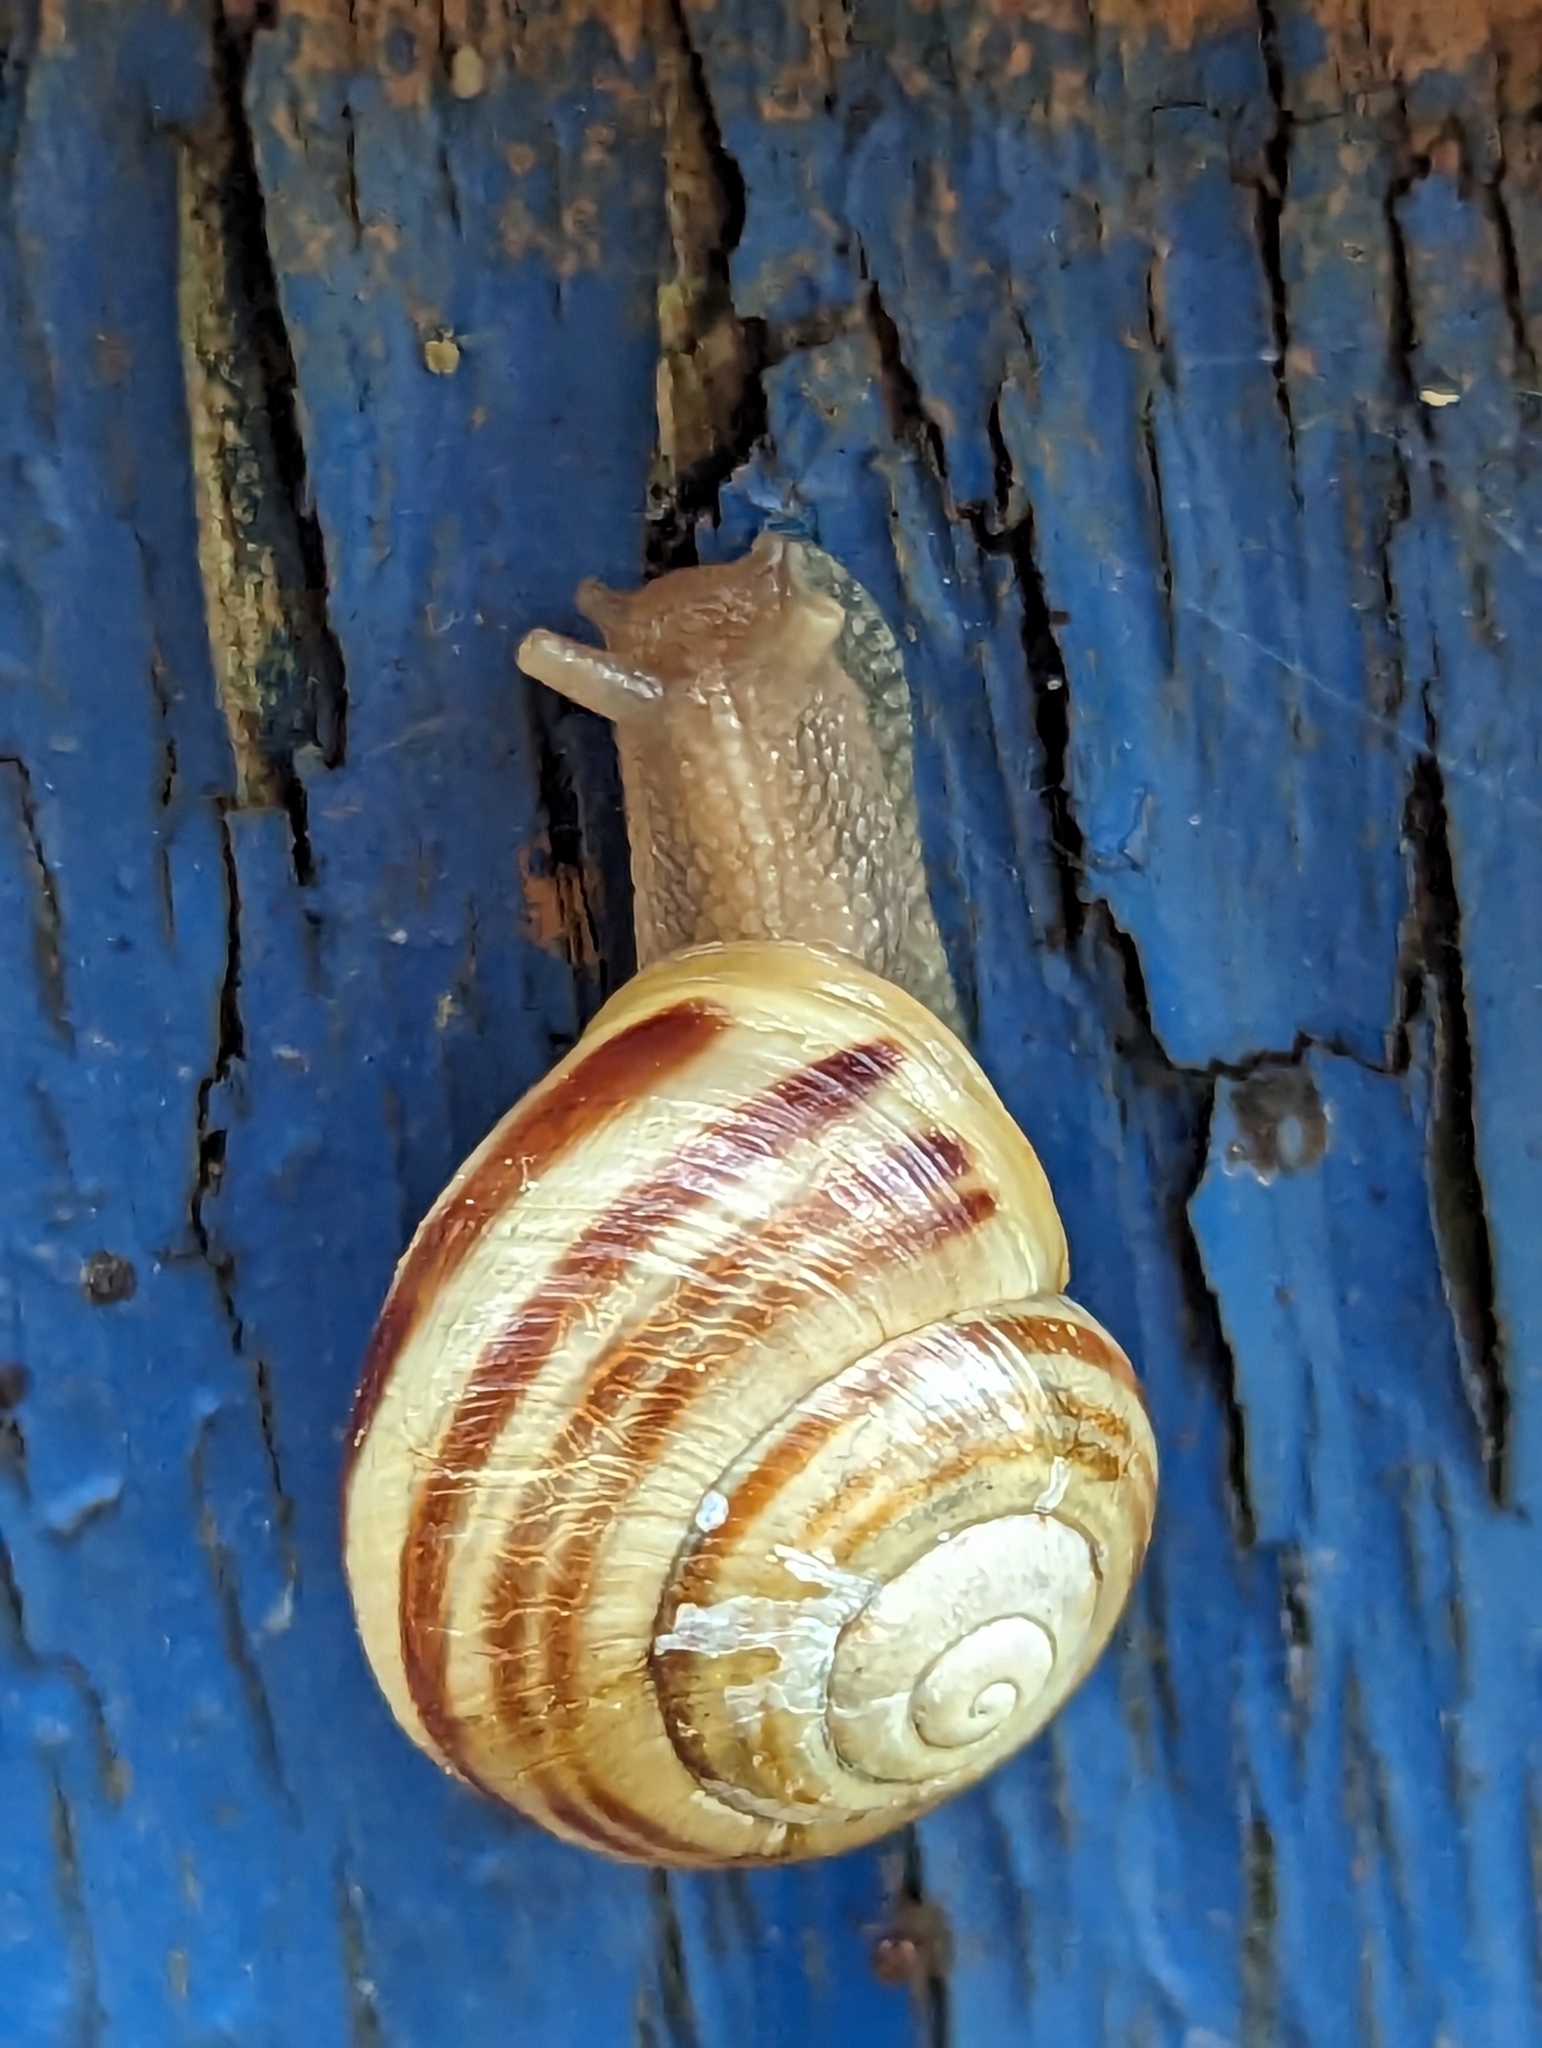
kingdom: Animalia
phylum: Mollusca
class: Gastropoda
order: Stylommatophora
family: Helicidae
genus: Cepaea
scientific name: Cepaea hortensis
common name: White-lip gardensnail
